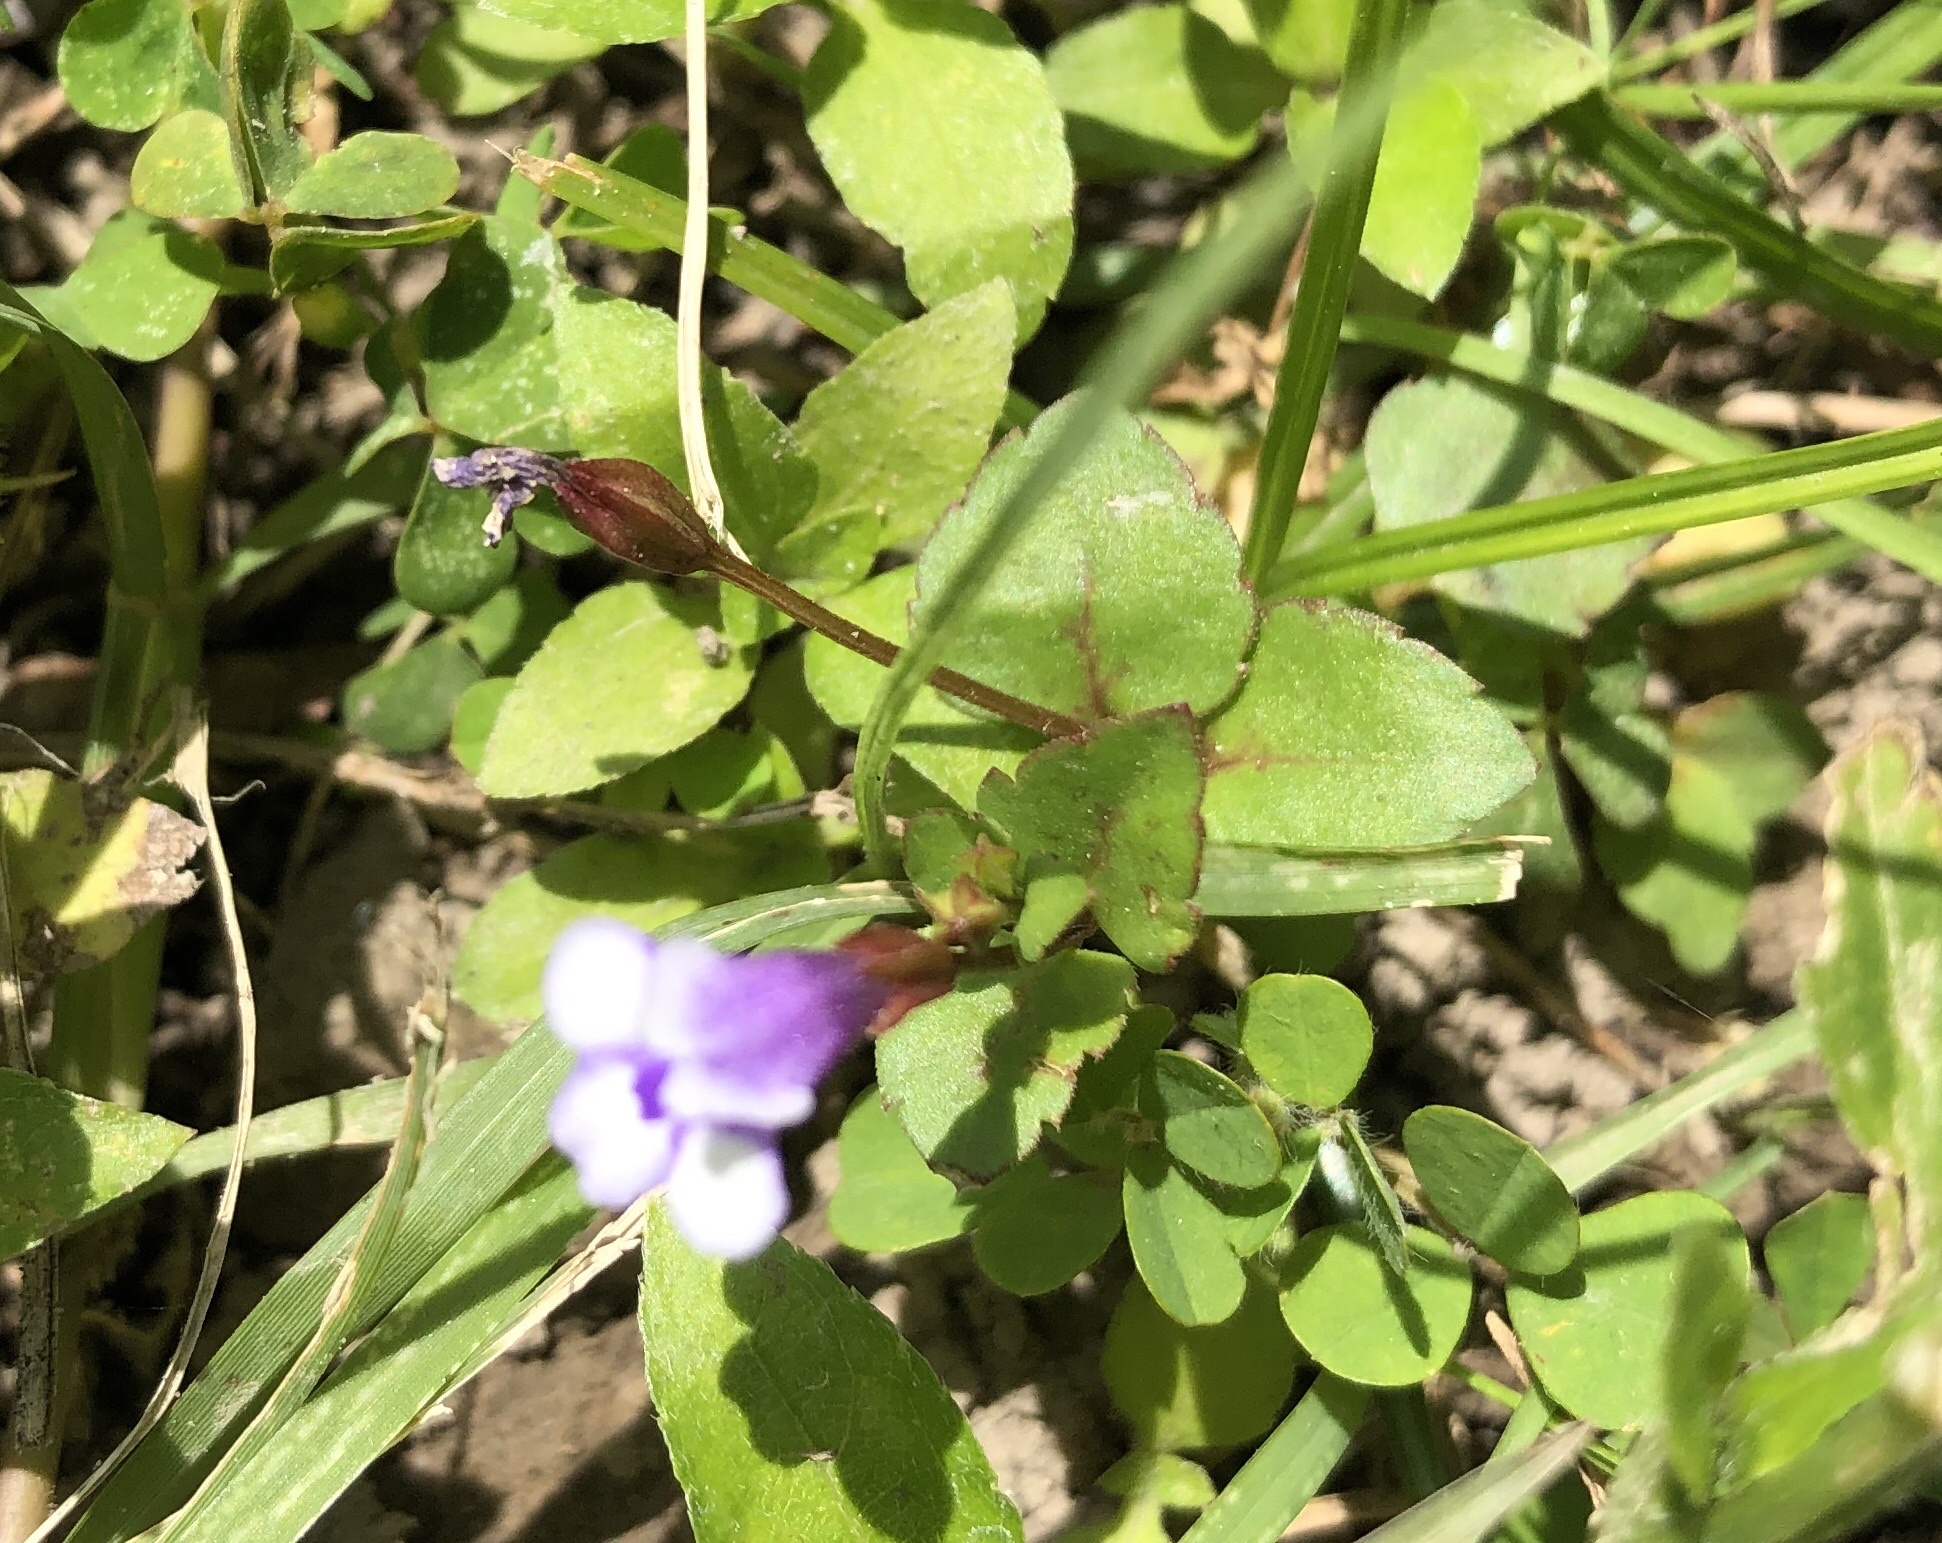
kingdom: Plantae
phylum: Tracheophyta
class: Magnoliopsida
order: Lamiales
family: Linderniaceae
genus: Torenia
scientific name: Torenia crustacea
